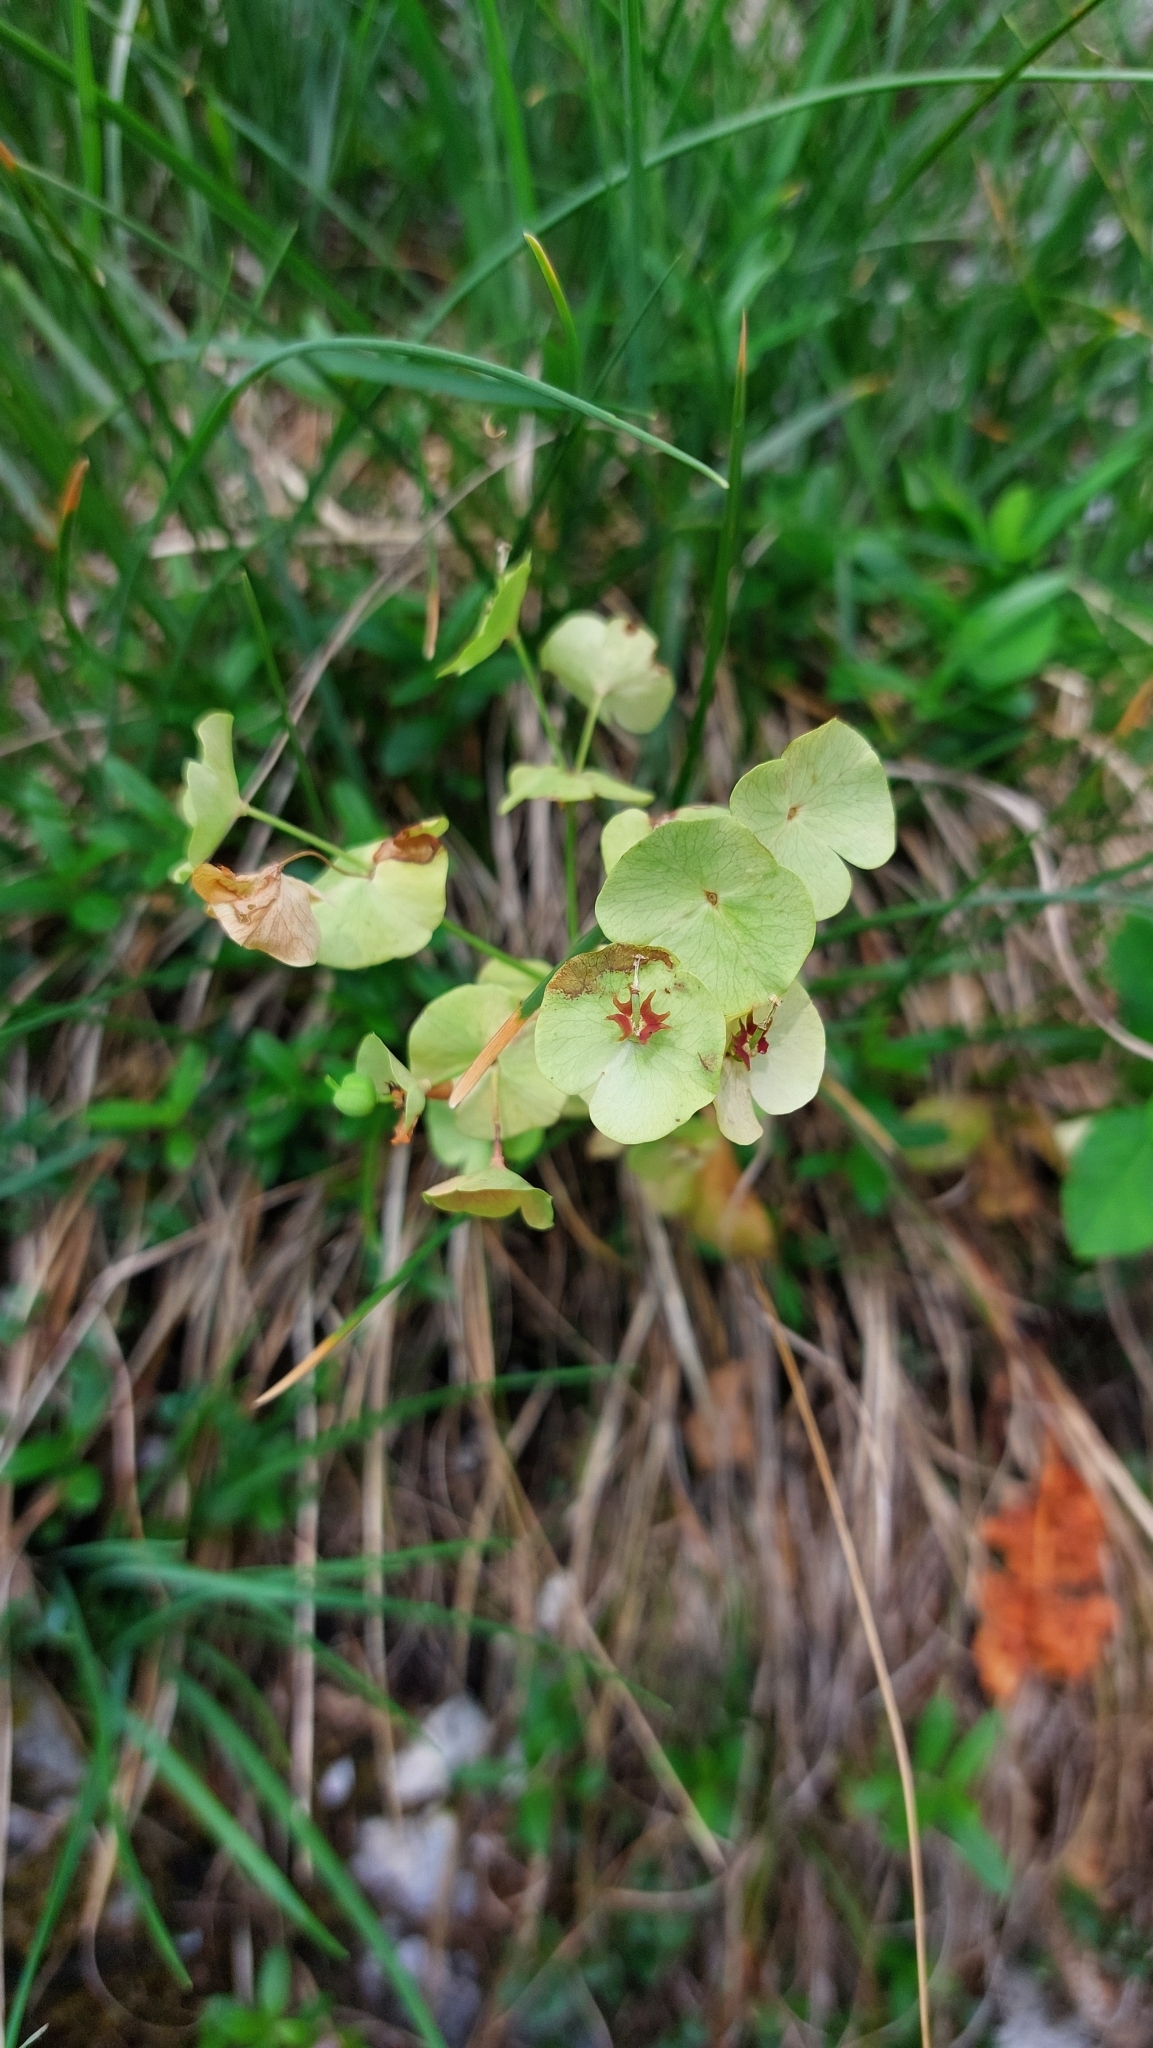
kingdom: Plantae
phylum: Tracheophyta
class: Magnoliopsida
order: Malpighiales
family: Euphorbiaceae
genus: Euphorbia
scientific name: Euphorbia amygdaloides
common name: Wood spurge
